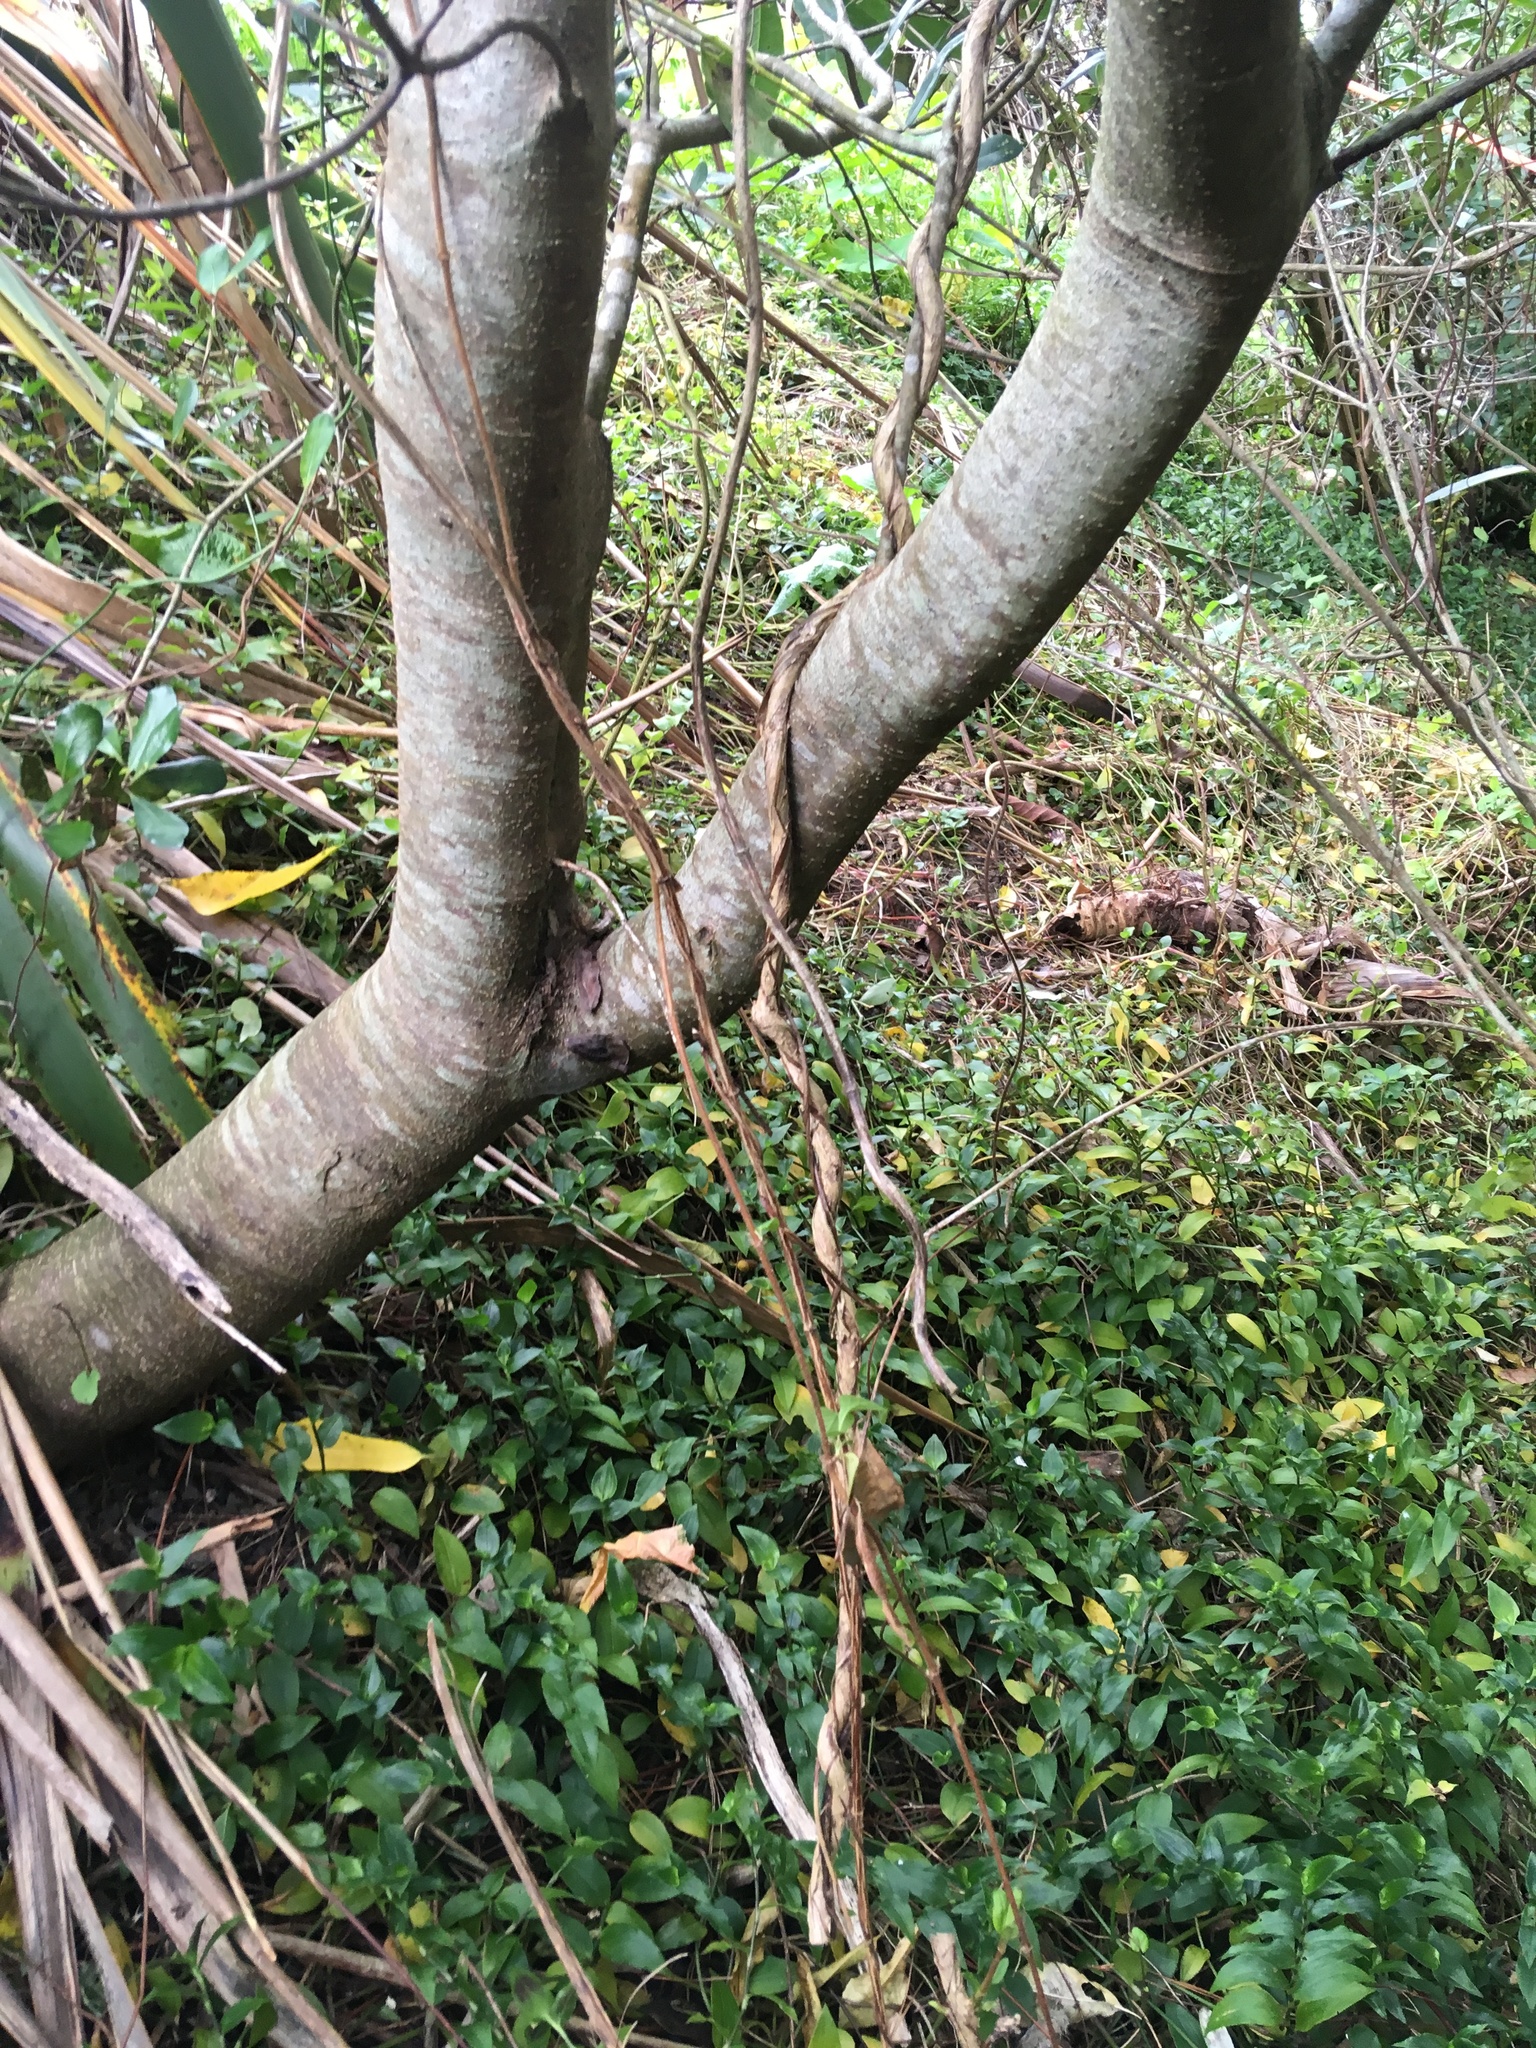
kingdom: Plantae
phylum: Tracheophyta
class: Liliopsida
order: Commelinales
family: Commelinaceae
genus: Tradescantia
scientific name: Tradescantia fluminensis
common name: Wandering-jew
